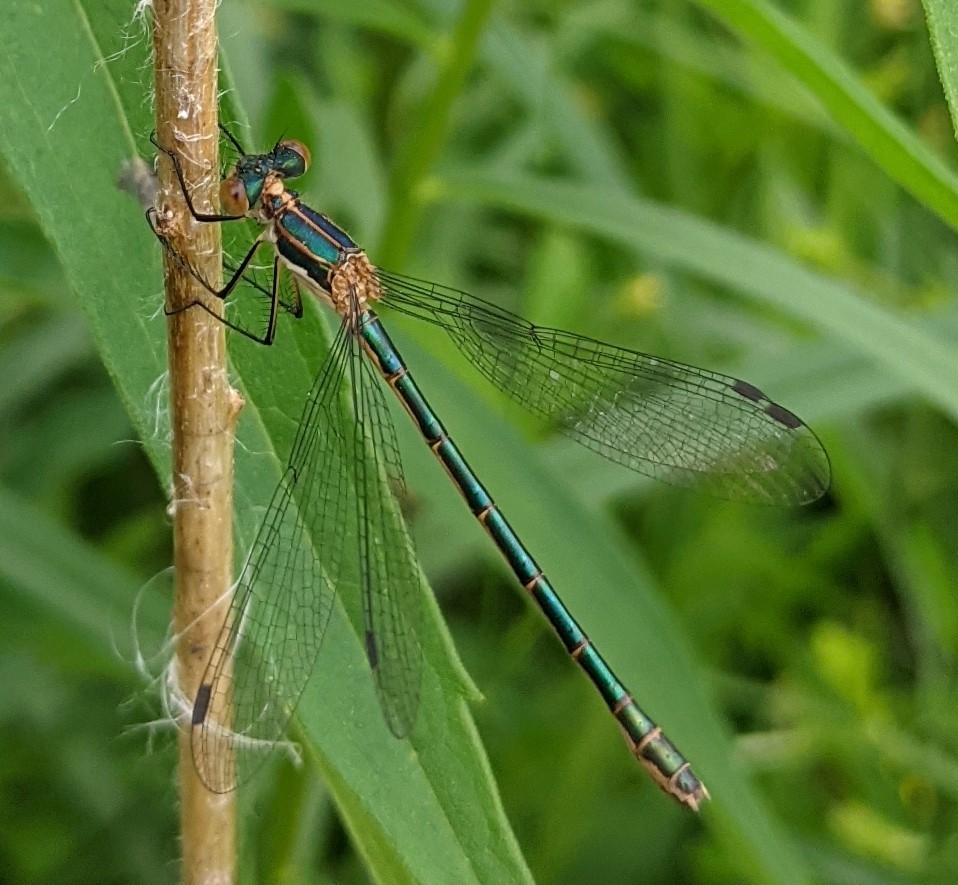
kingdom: Animalia
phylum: Arthropoda
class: Insecta
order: Odonata
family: Lestidae
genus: Lestes
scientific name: Lestes dryas
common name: Scarce emerald damselfly
